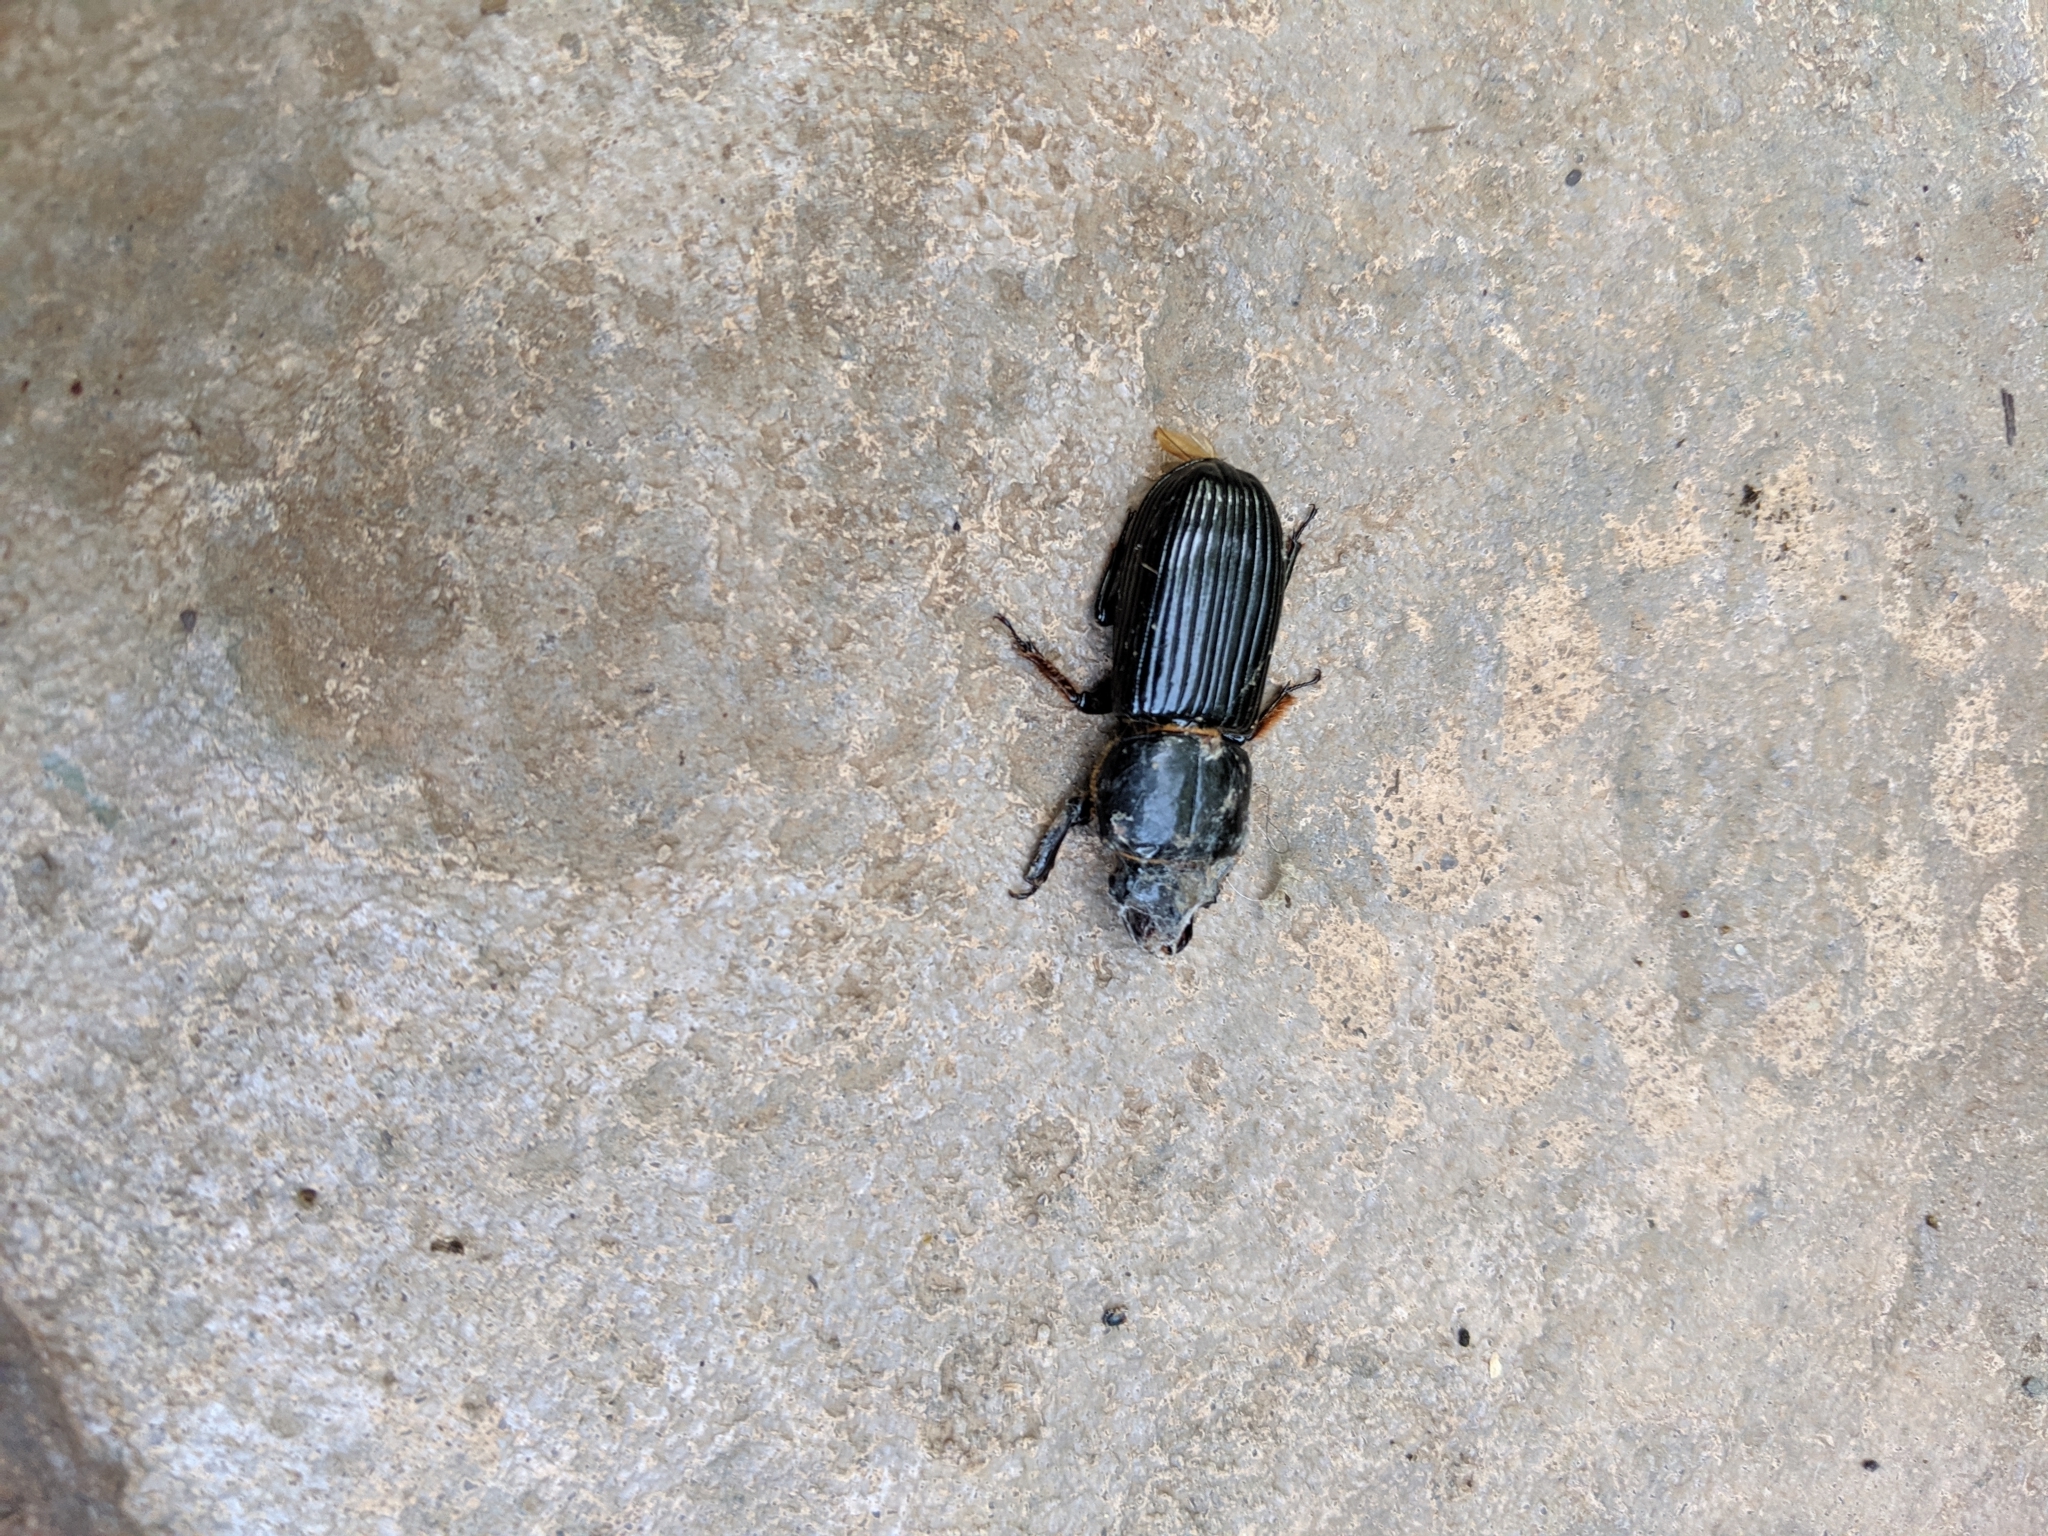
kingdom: Animalia
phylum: Arthropoda
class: Insecta
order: Coleoptera
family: Passalidae
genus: Odontotaenius
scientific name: Odontotaenius disjunctus
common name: Patent leather beetle
